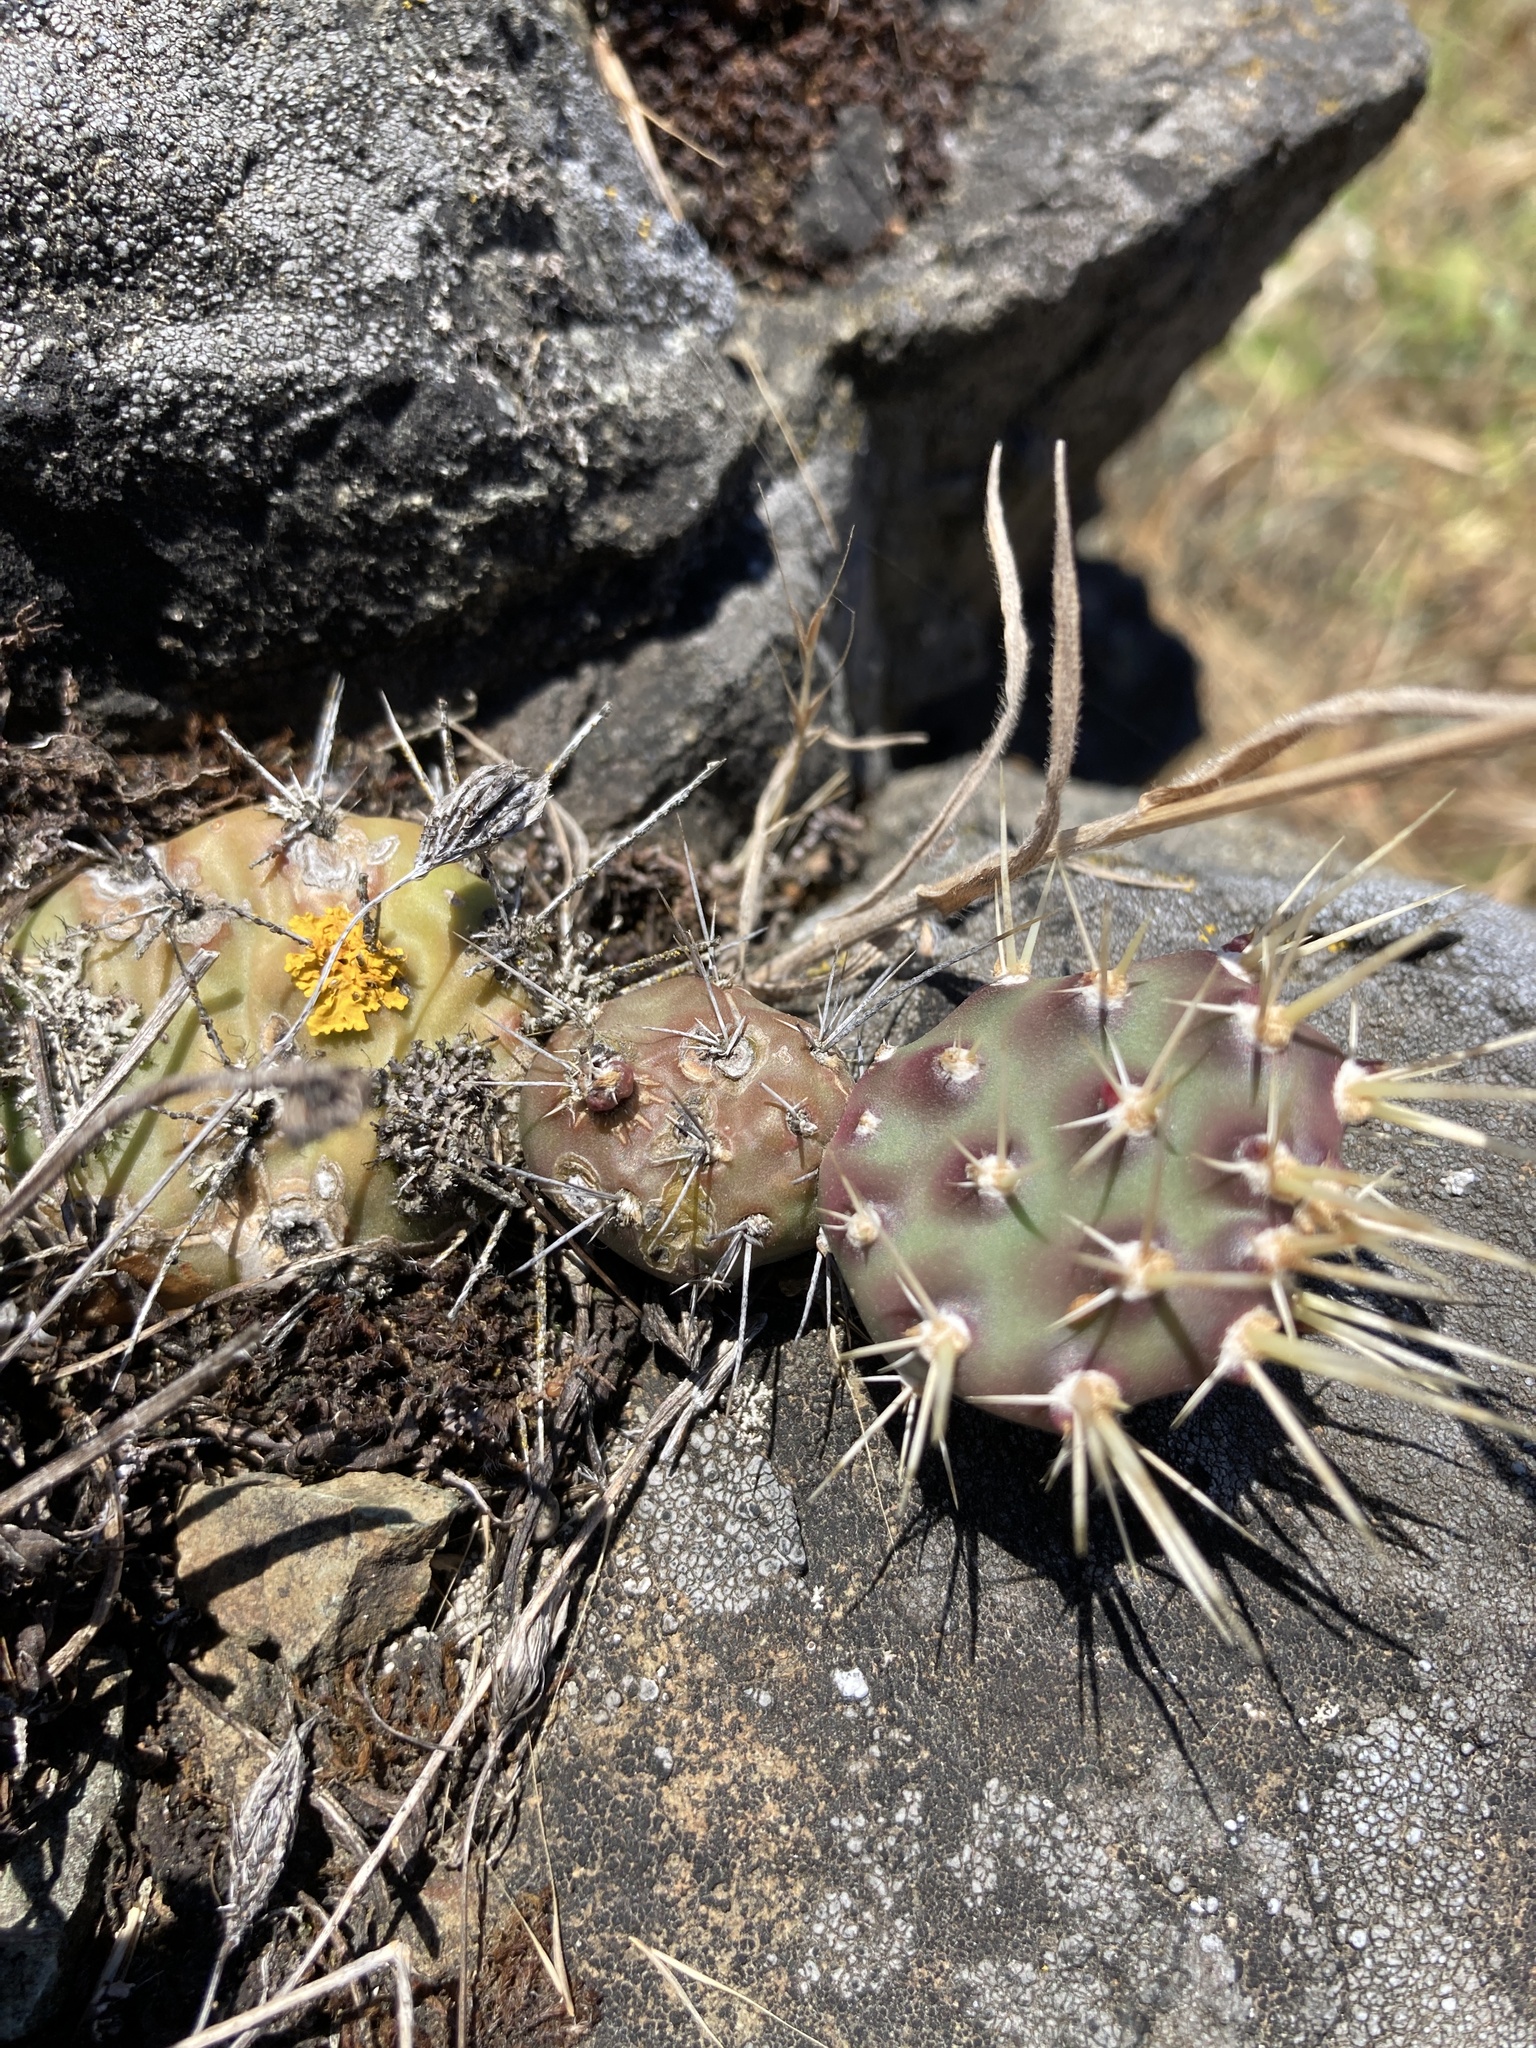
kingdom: Plantae
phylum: Tracheophyta
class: Magnoliopsida
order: Caryophyllales
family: Cactaceae
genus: Opuntia
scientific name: Opuntia fragilis
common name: Brittle cactus
